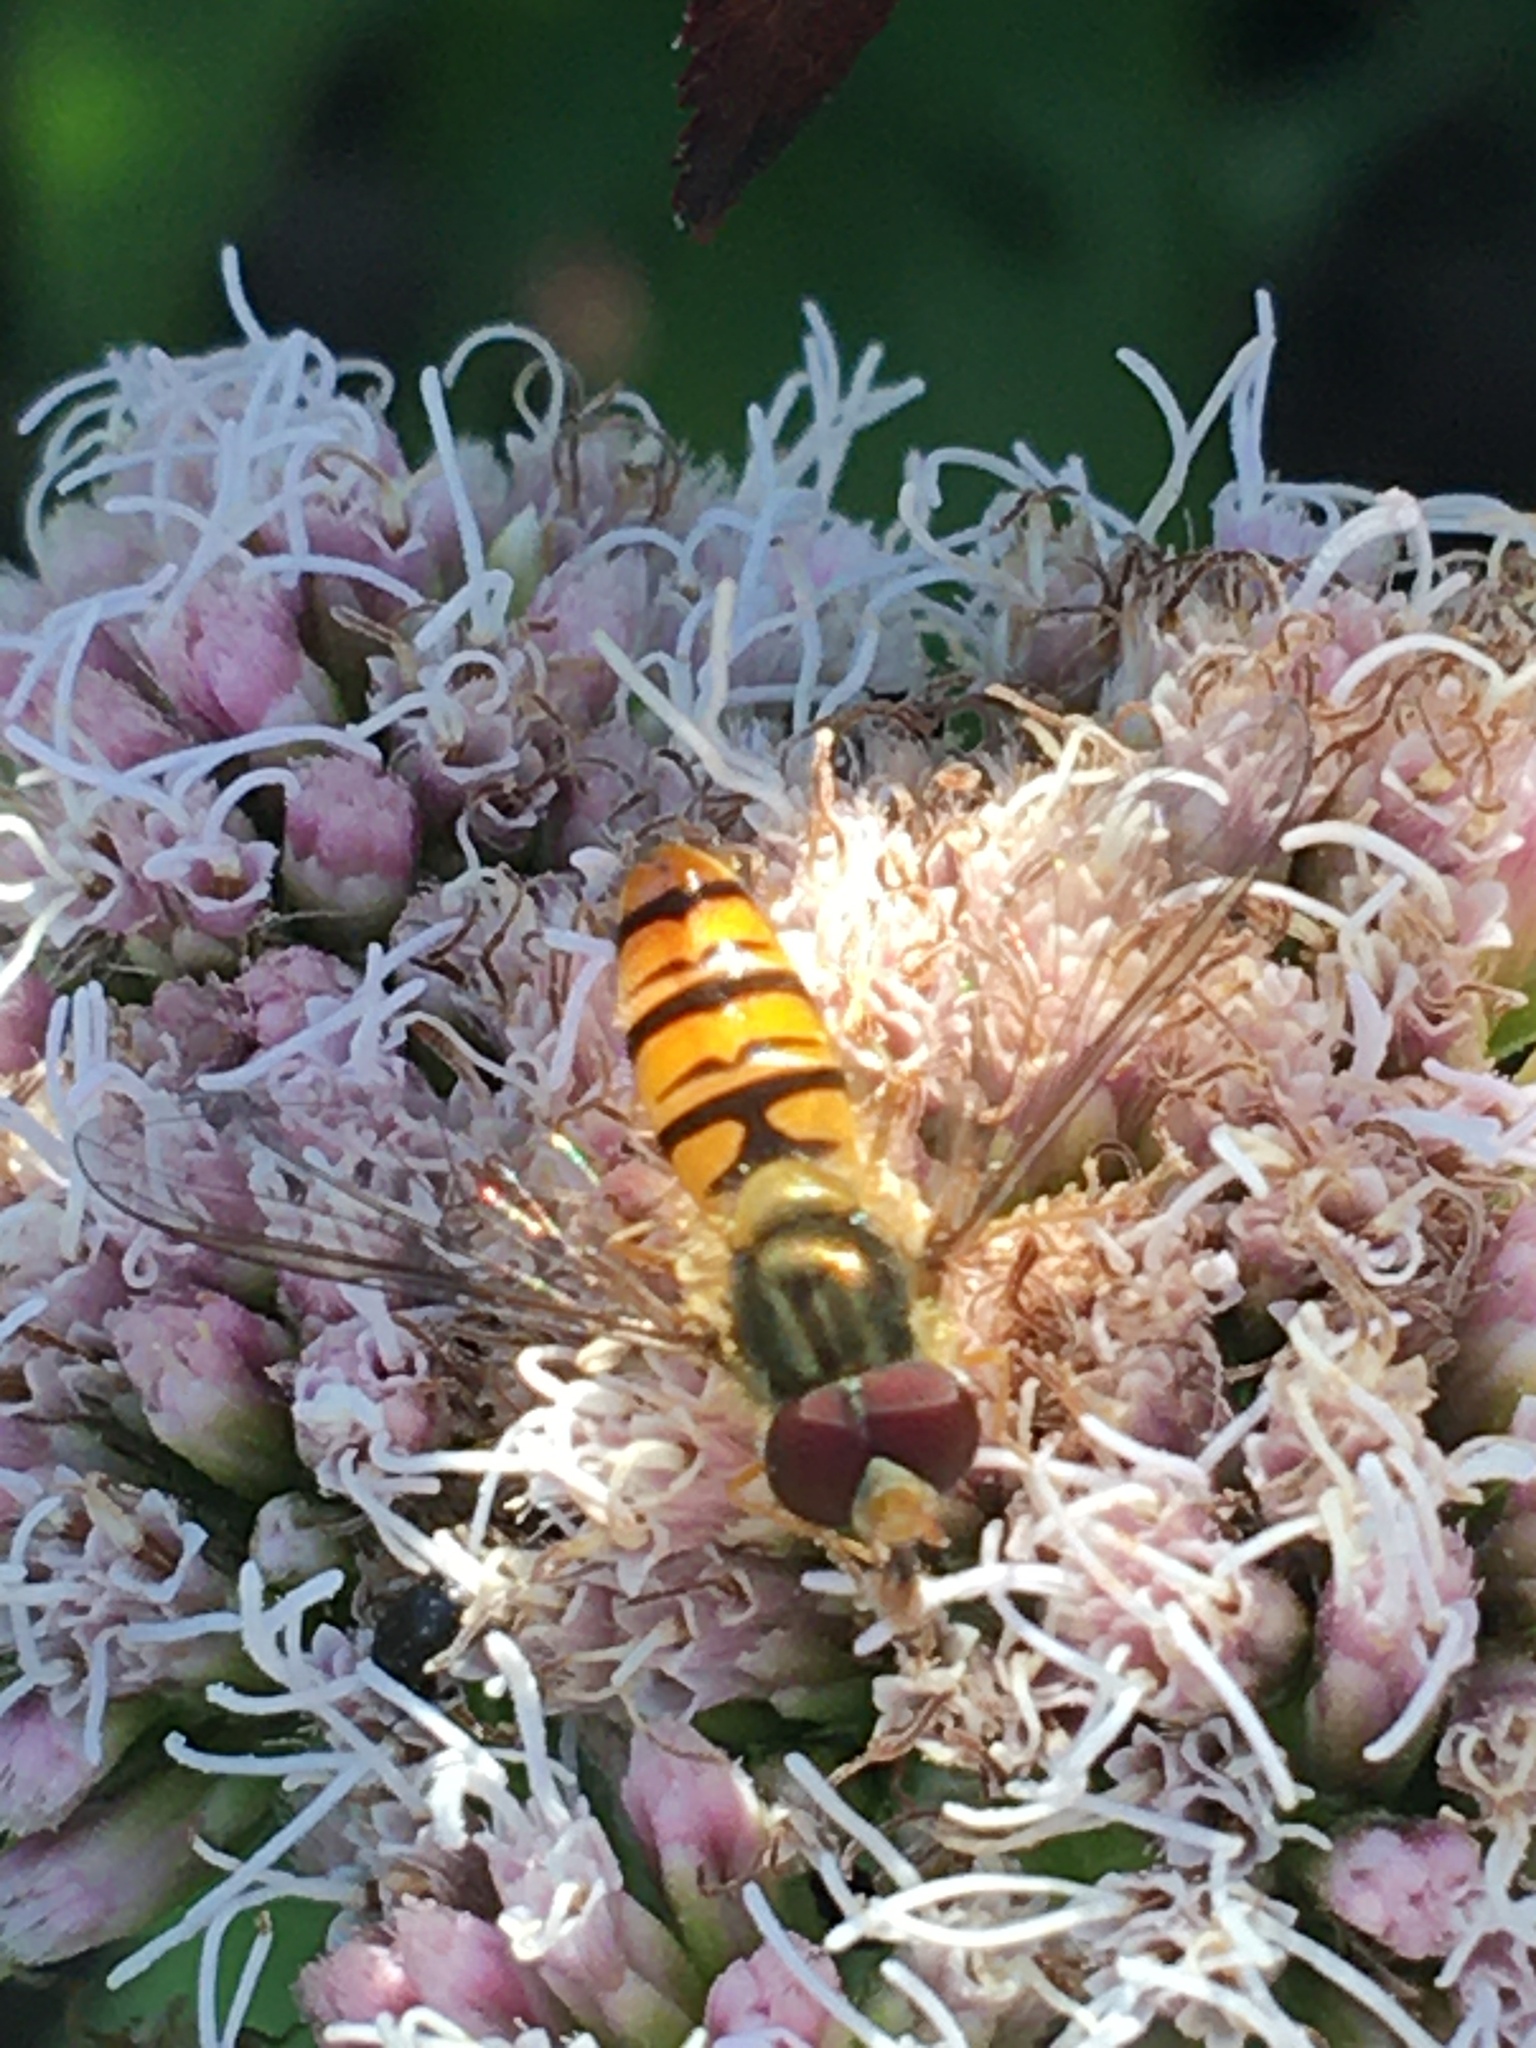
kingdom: Animalia
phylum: Arthropoda
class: Insecta
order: Diptera
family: Syrphidae
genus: Episyrphus
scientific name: Episyrphus balteatus
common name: Marmalade hoverfly
